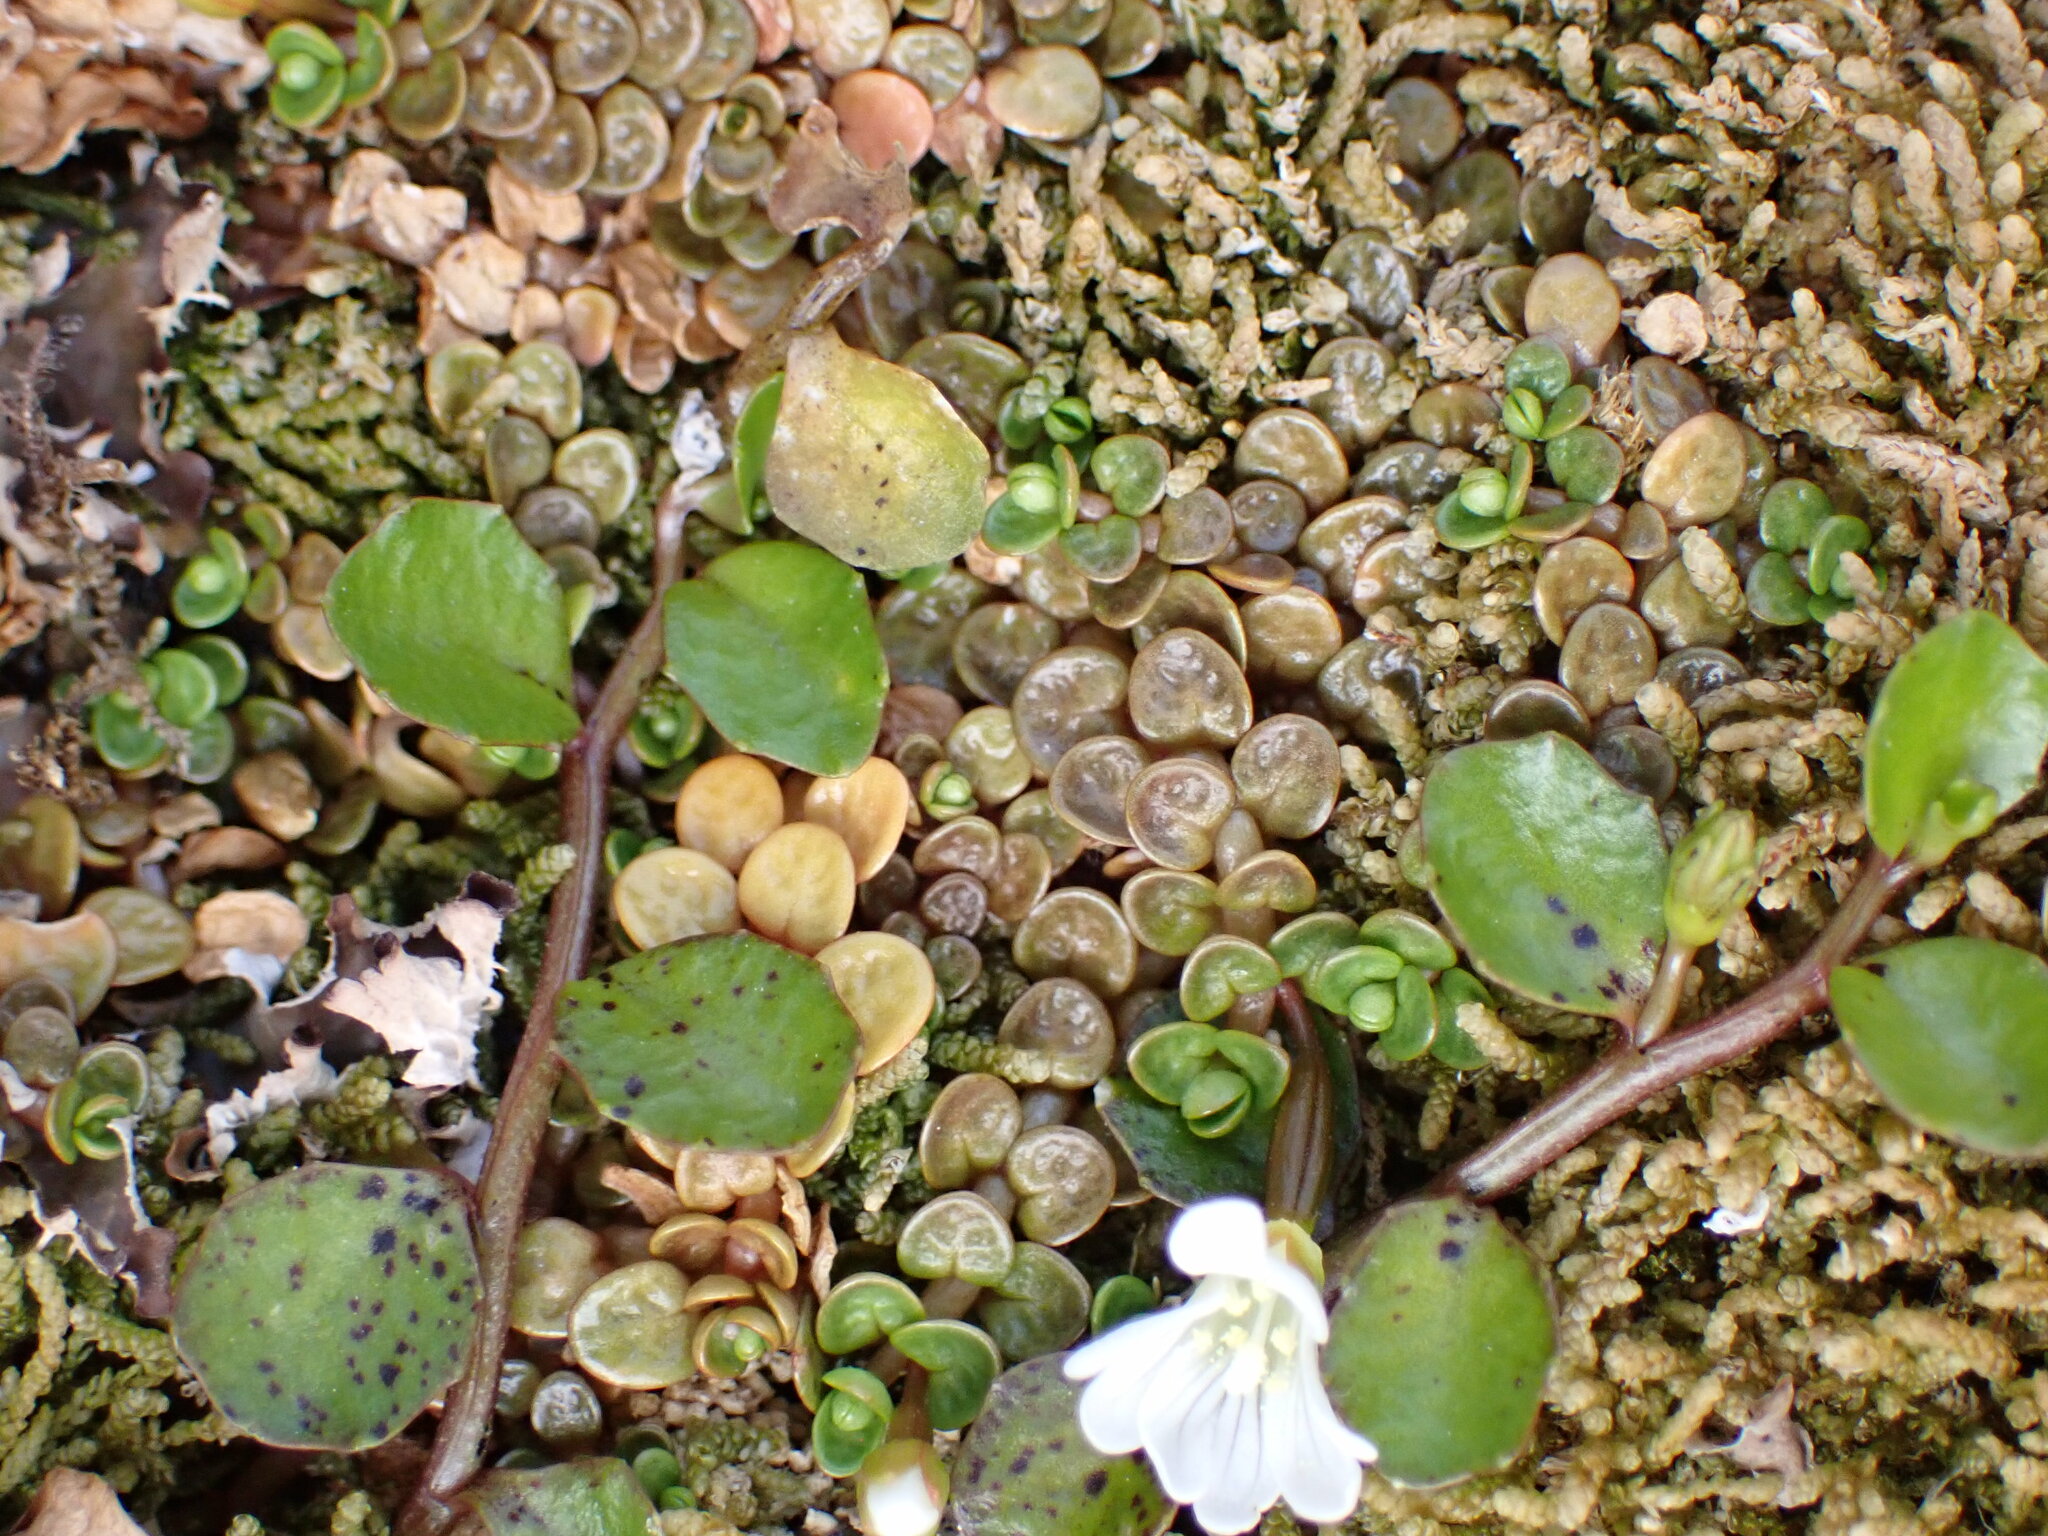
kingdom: Plantae
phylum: Tracheophyta
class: Magnoliopsida
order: Myrtales
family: Onagraceae
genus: Epilobium
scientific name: Epilobium komarovianum
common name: Bronzy willowherb
